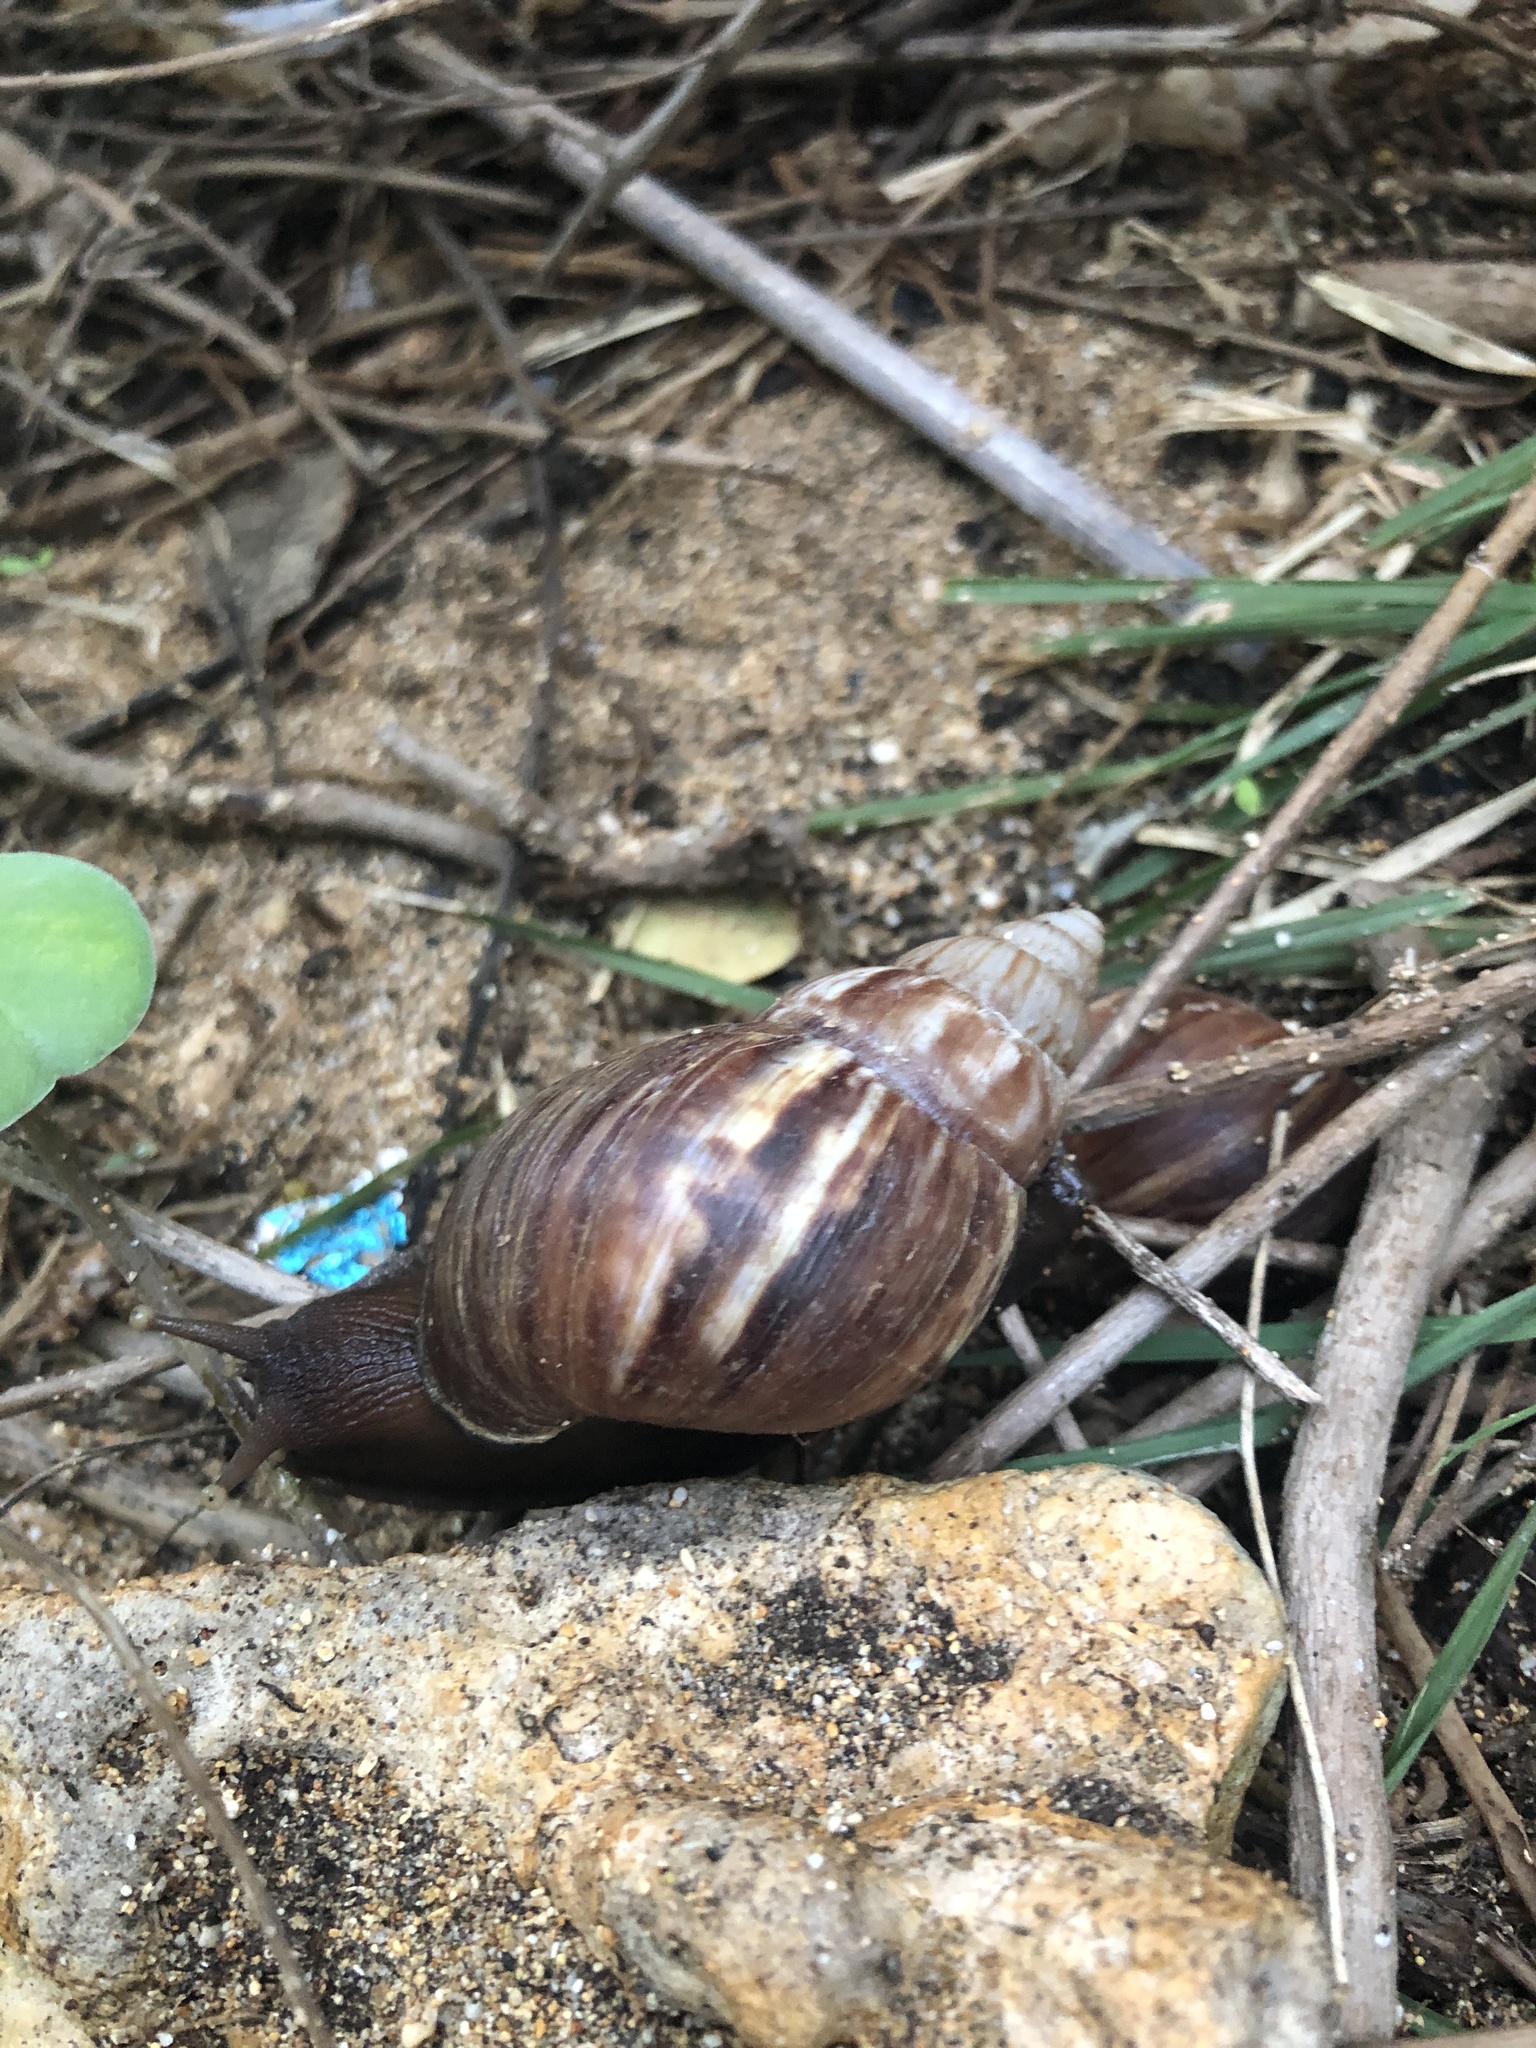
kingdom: Animalia
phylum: Mollusca
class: Gastropoda
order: Stylommatophora
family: Achatinidae
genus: Lissachatina
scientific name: Lissachatina fulica
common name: Giant african snail
